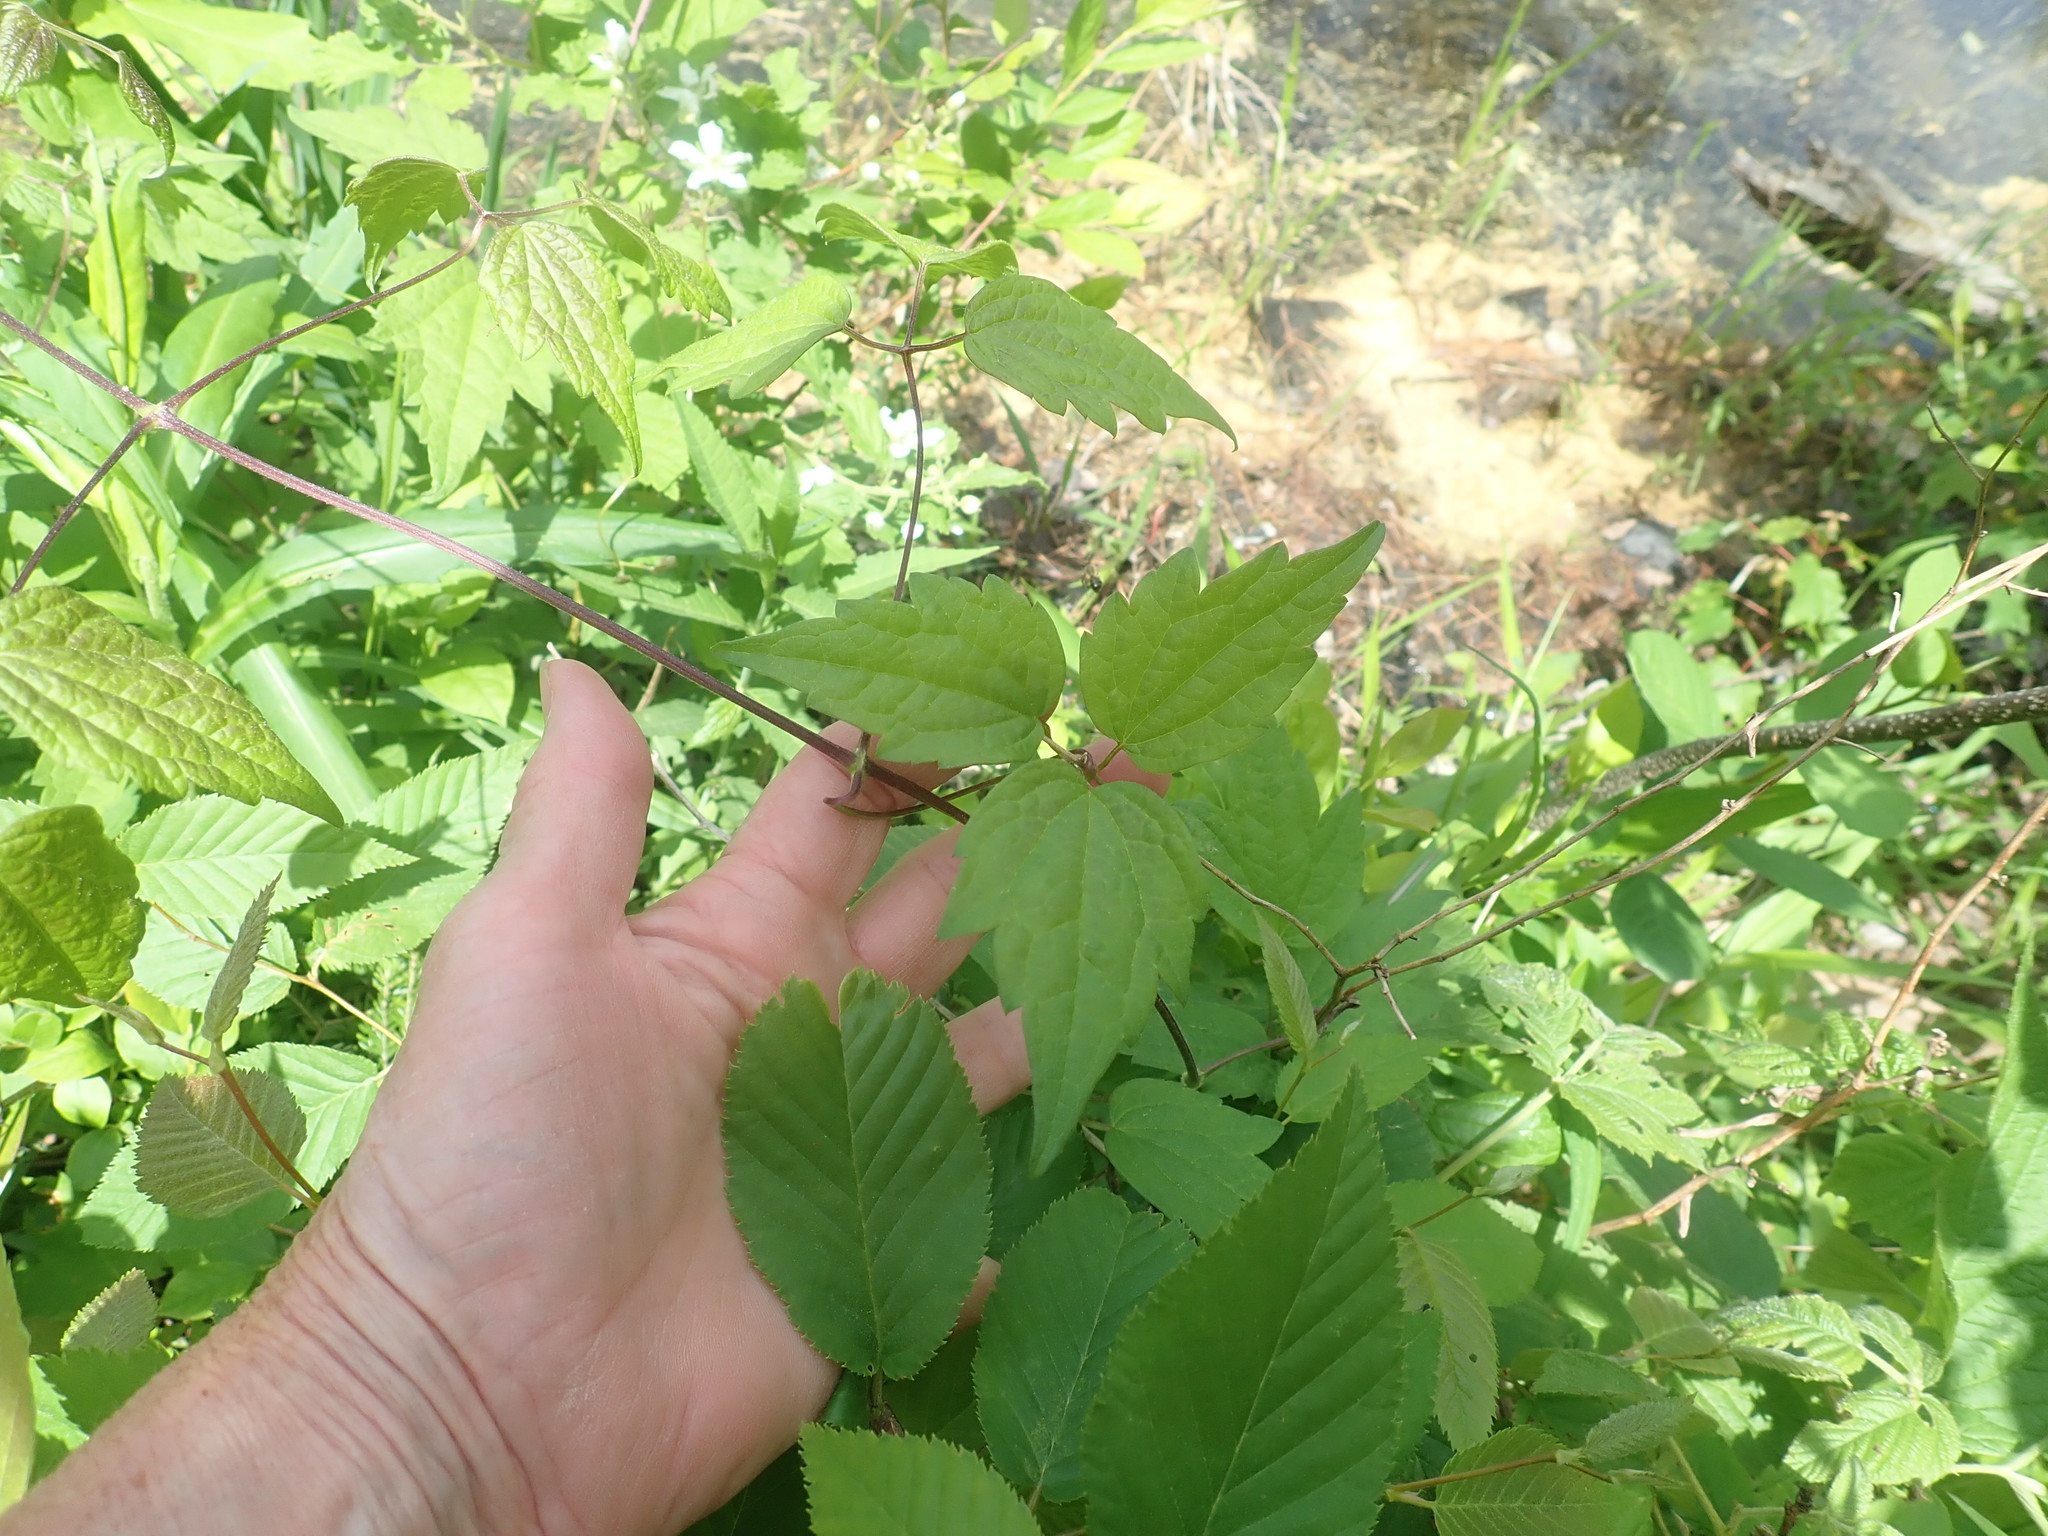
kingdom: Plantae
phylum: Tracheophyta
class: Magnoliopsida
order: Ranunculales
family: Ranunculaceae
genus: Clematis
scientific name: Clematis virginiana
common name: Virgin's-bower
